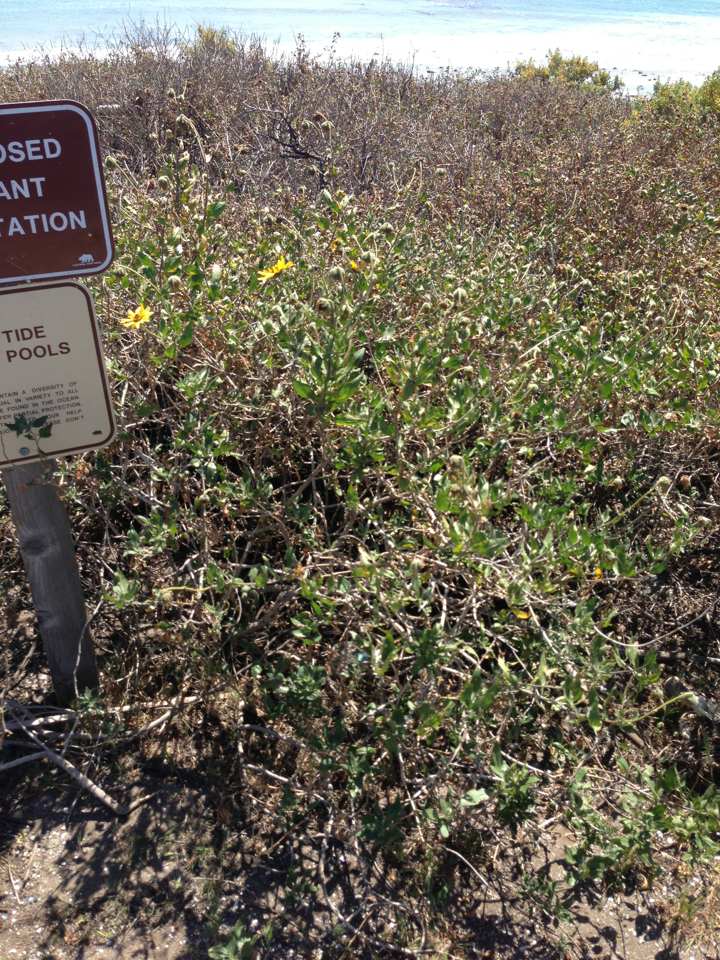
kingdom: Plantae
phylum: Tracheophyta
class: Magnoliopsida
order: Asterales
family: Asteraceae
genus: Encelia
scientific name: Encelia californica
